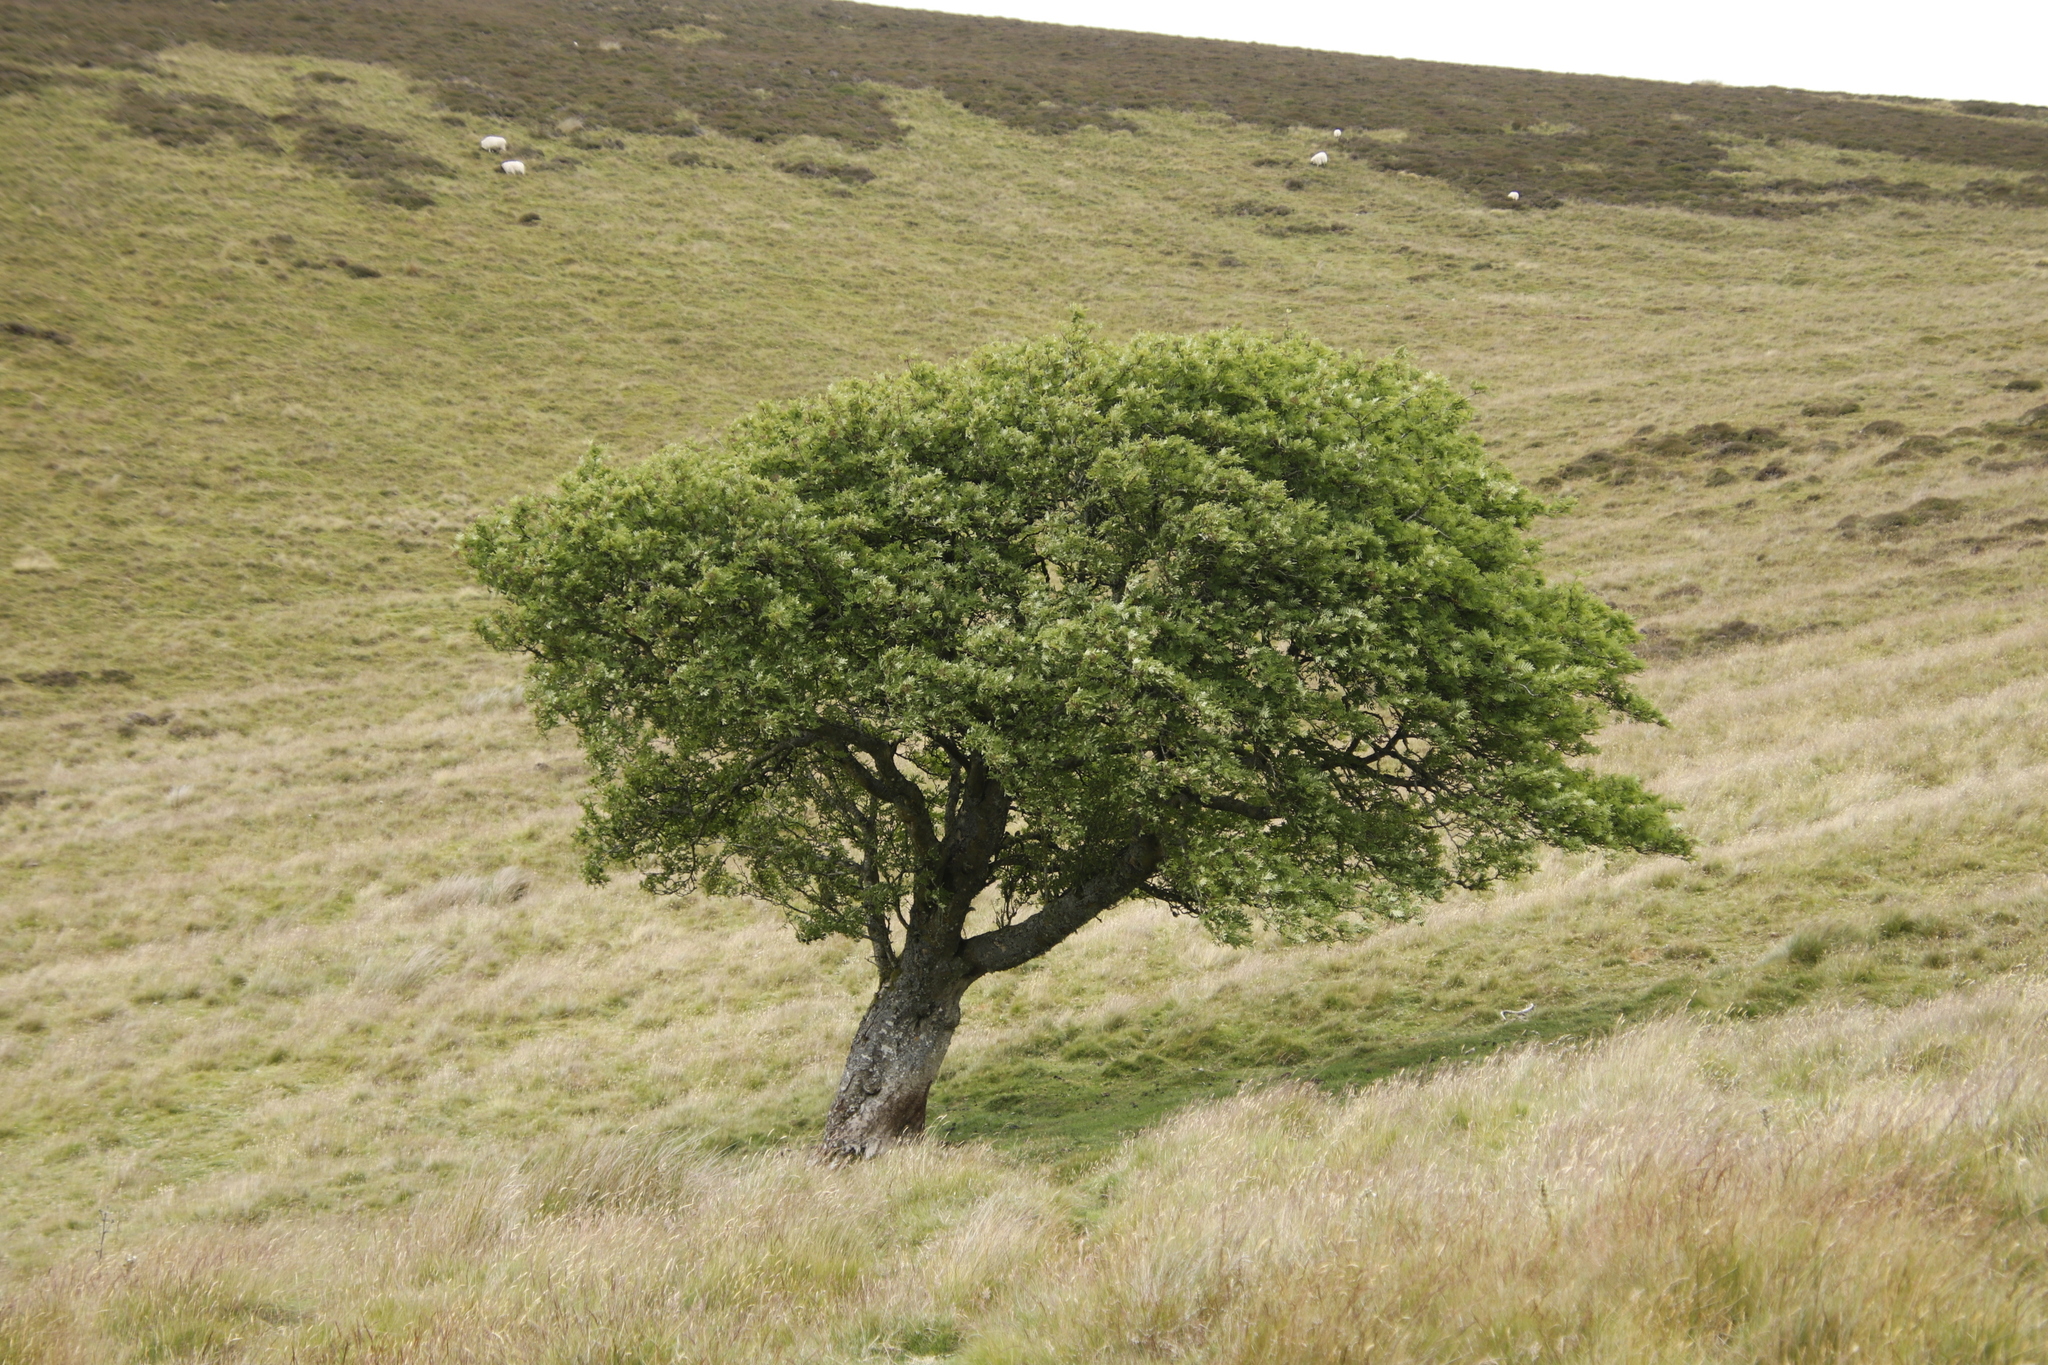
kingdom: Plantae
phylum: Tracheophyta
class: Magnoliopsida
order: Rosales
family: Rosaceae
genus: Sorbus
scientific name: Sorbus aucuparia
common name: Rowan
